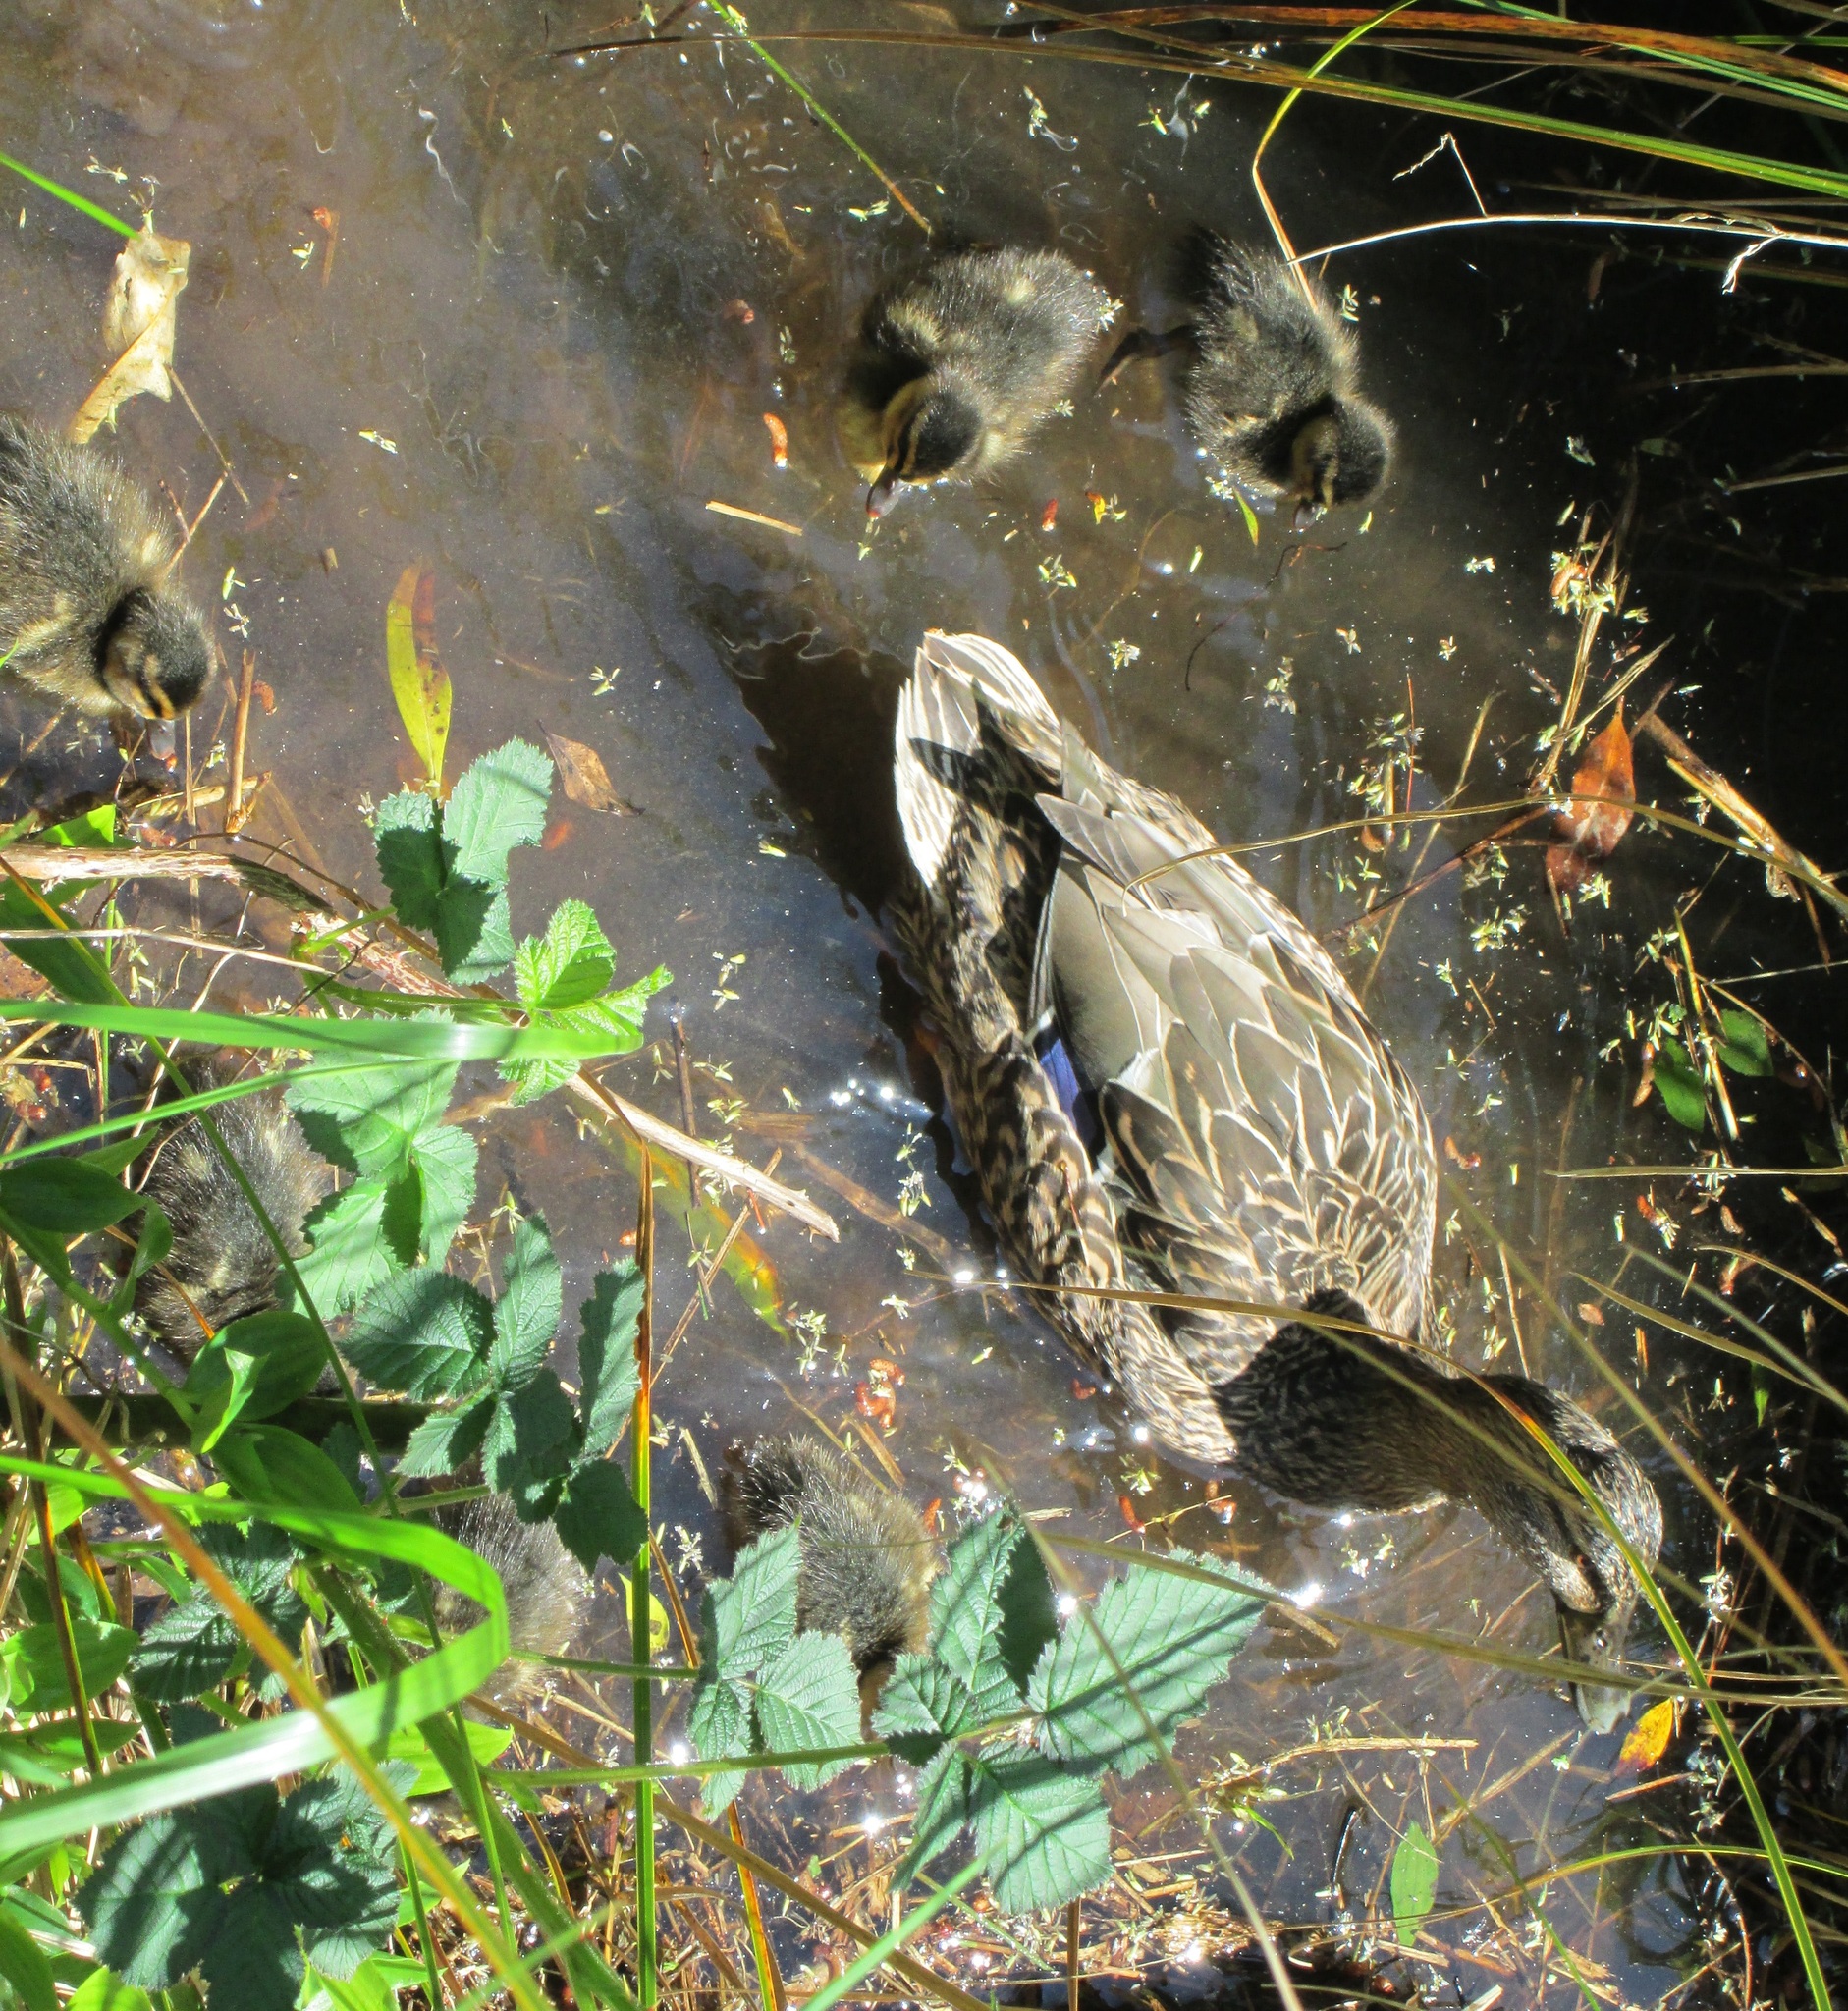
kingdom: Animalia
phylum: Chordata
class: Aves
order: Anseriformes
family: Anatidae
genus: Anas
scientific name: Anas
